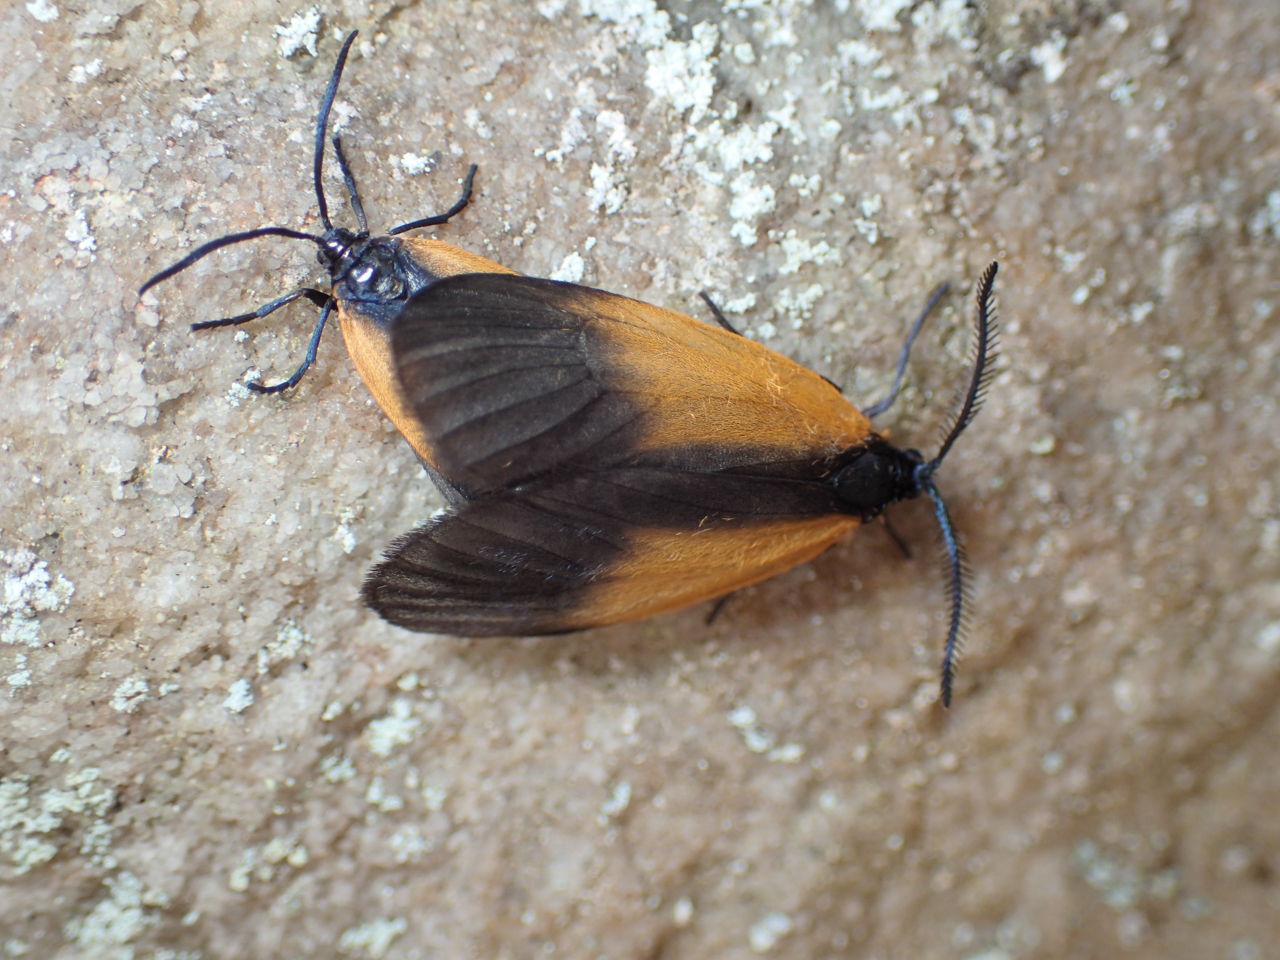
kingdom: Animalia
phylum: Arthropoda
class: Insecta
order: Lepidoptera
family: Zygaenidae
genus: Malthaca
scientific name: Malthaca dimidiata
